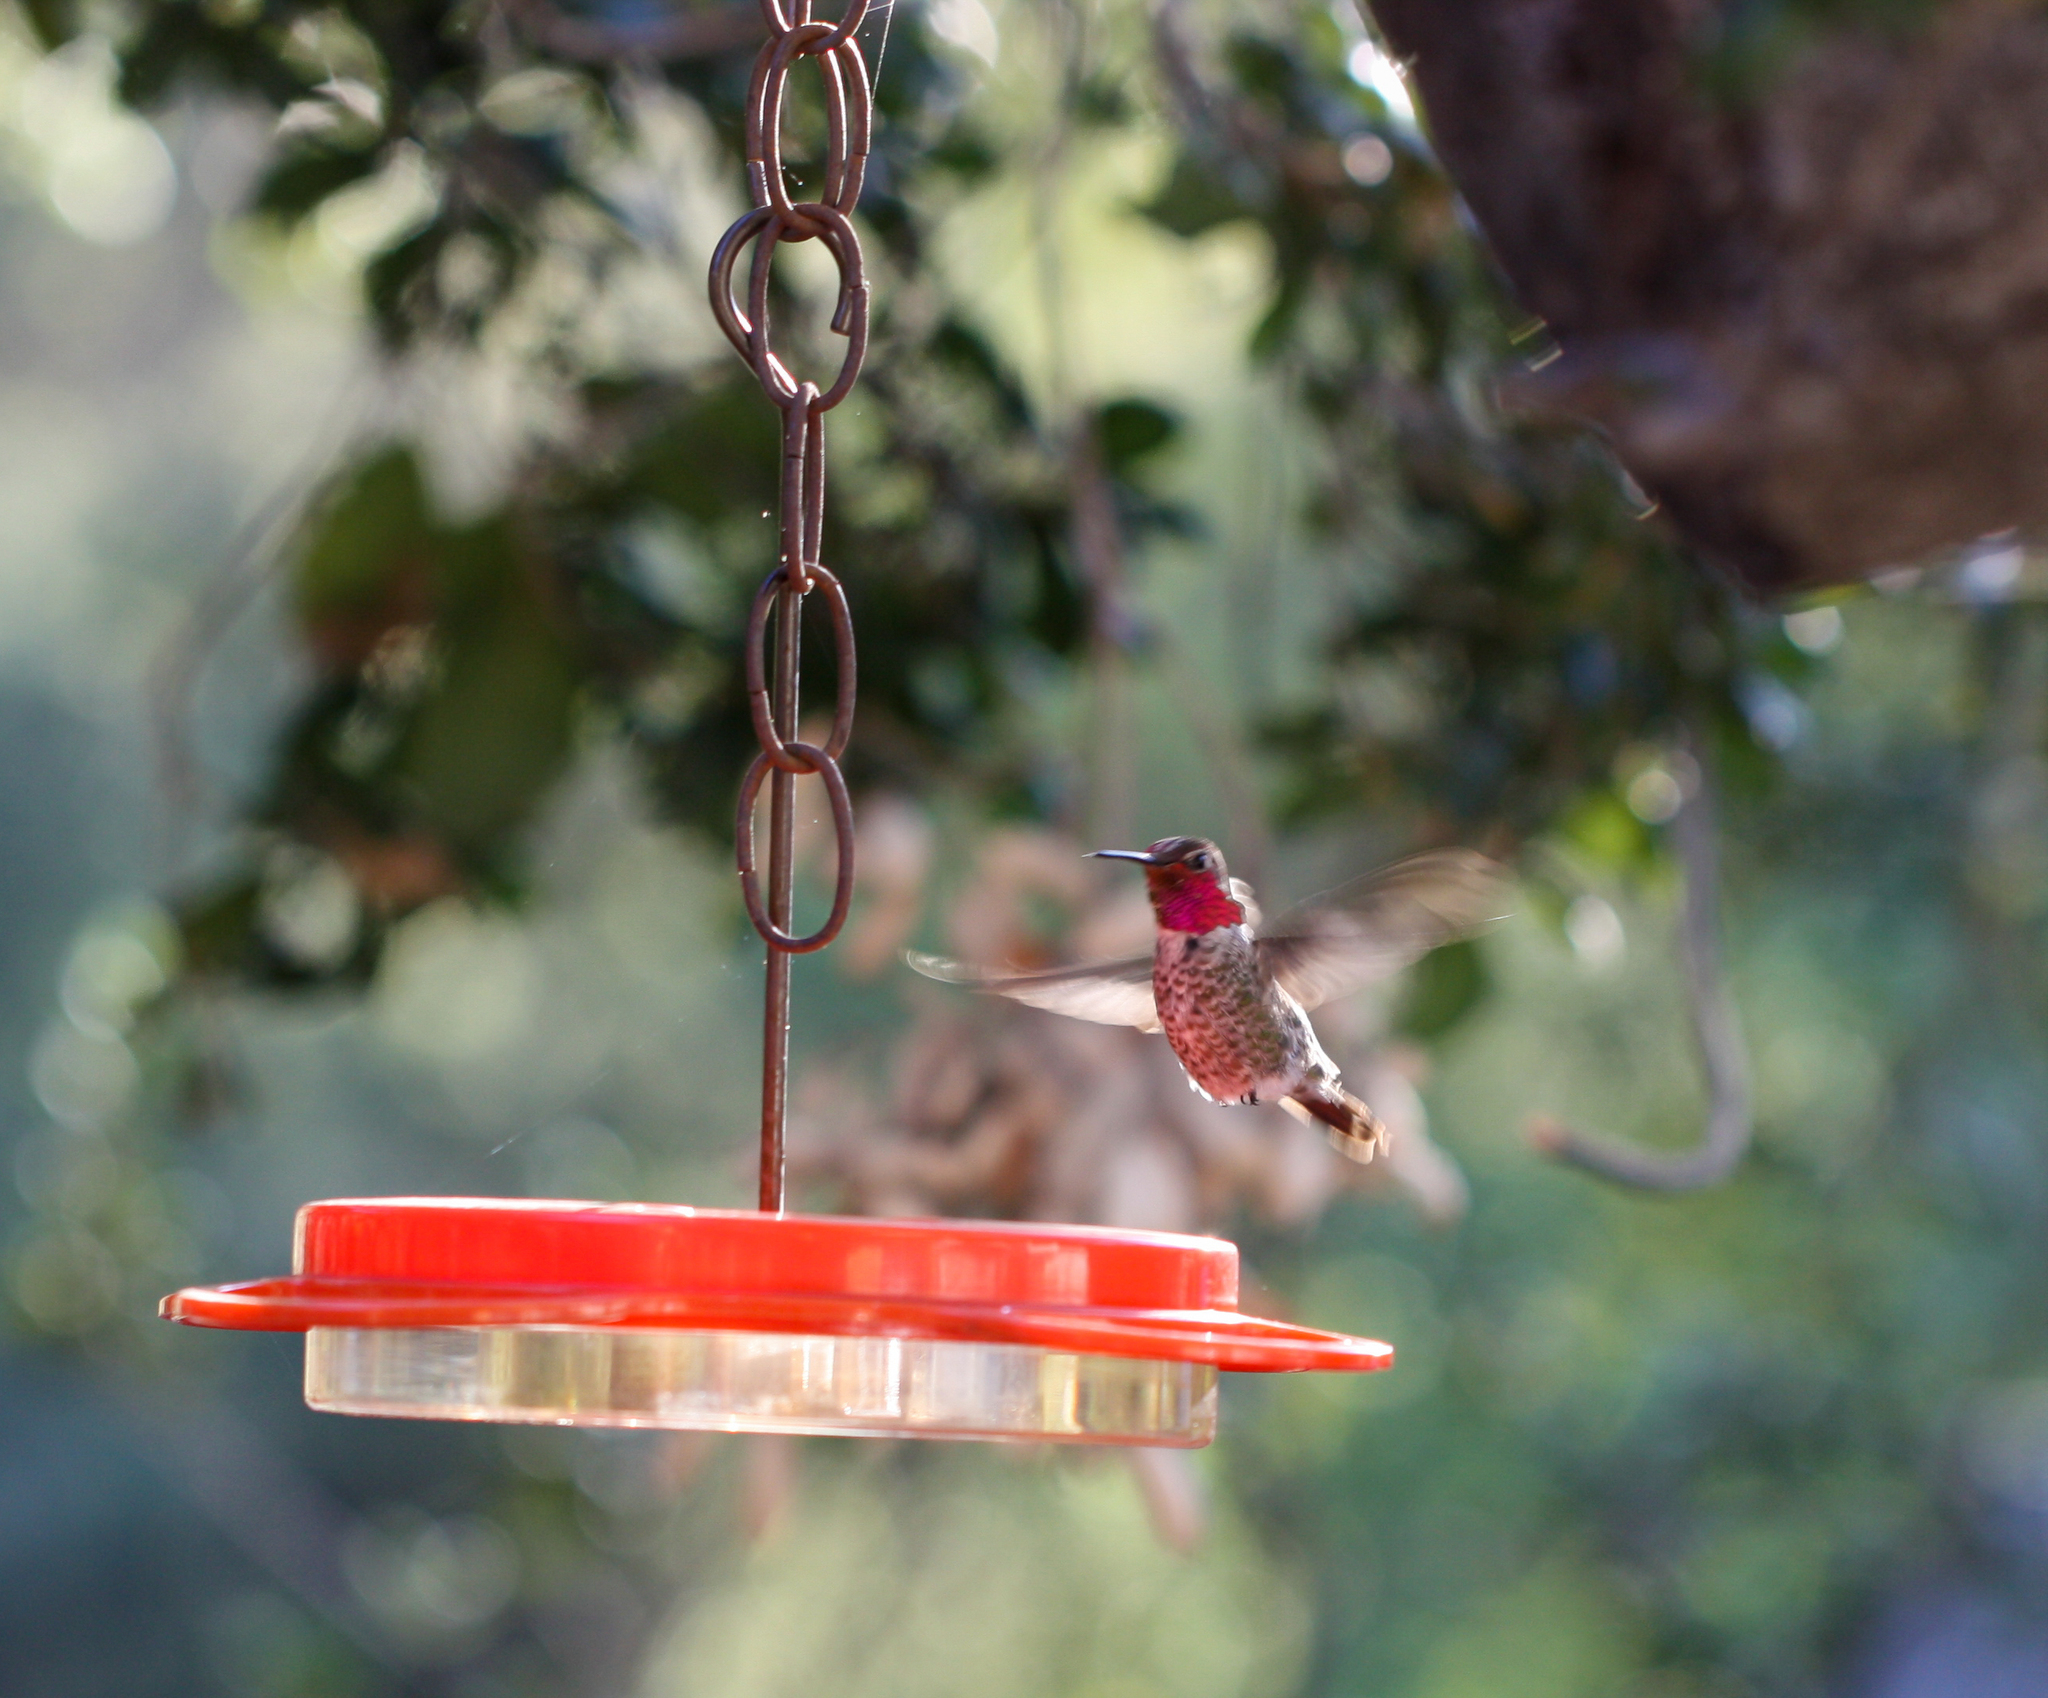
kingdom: Animalia
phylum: Chordata
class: Aves
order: Apodiformes
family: Trochilidae
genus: Calypte
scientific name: Calypte anna
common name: Anna's hummingbird
